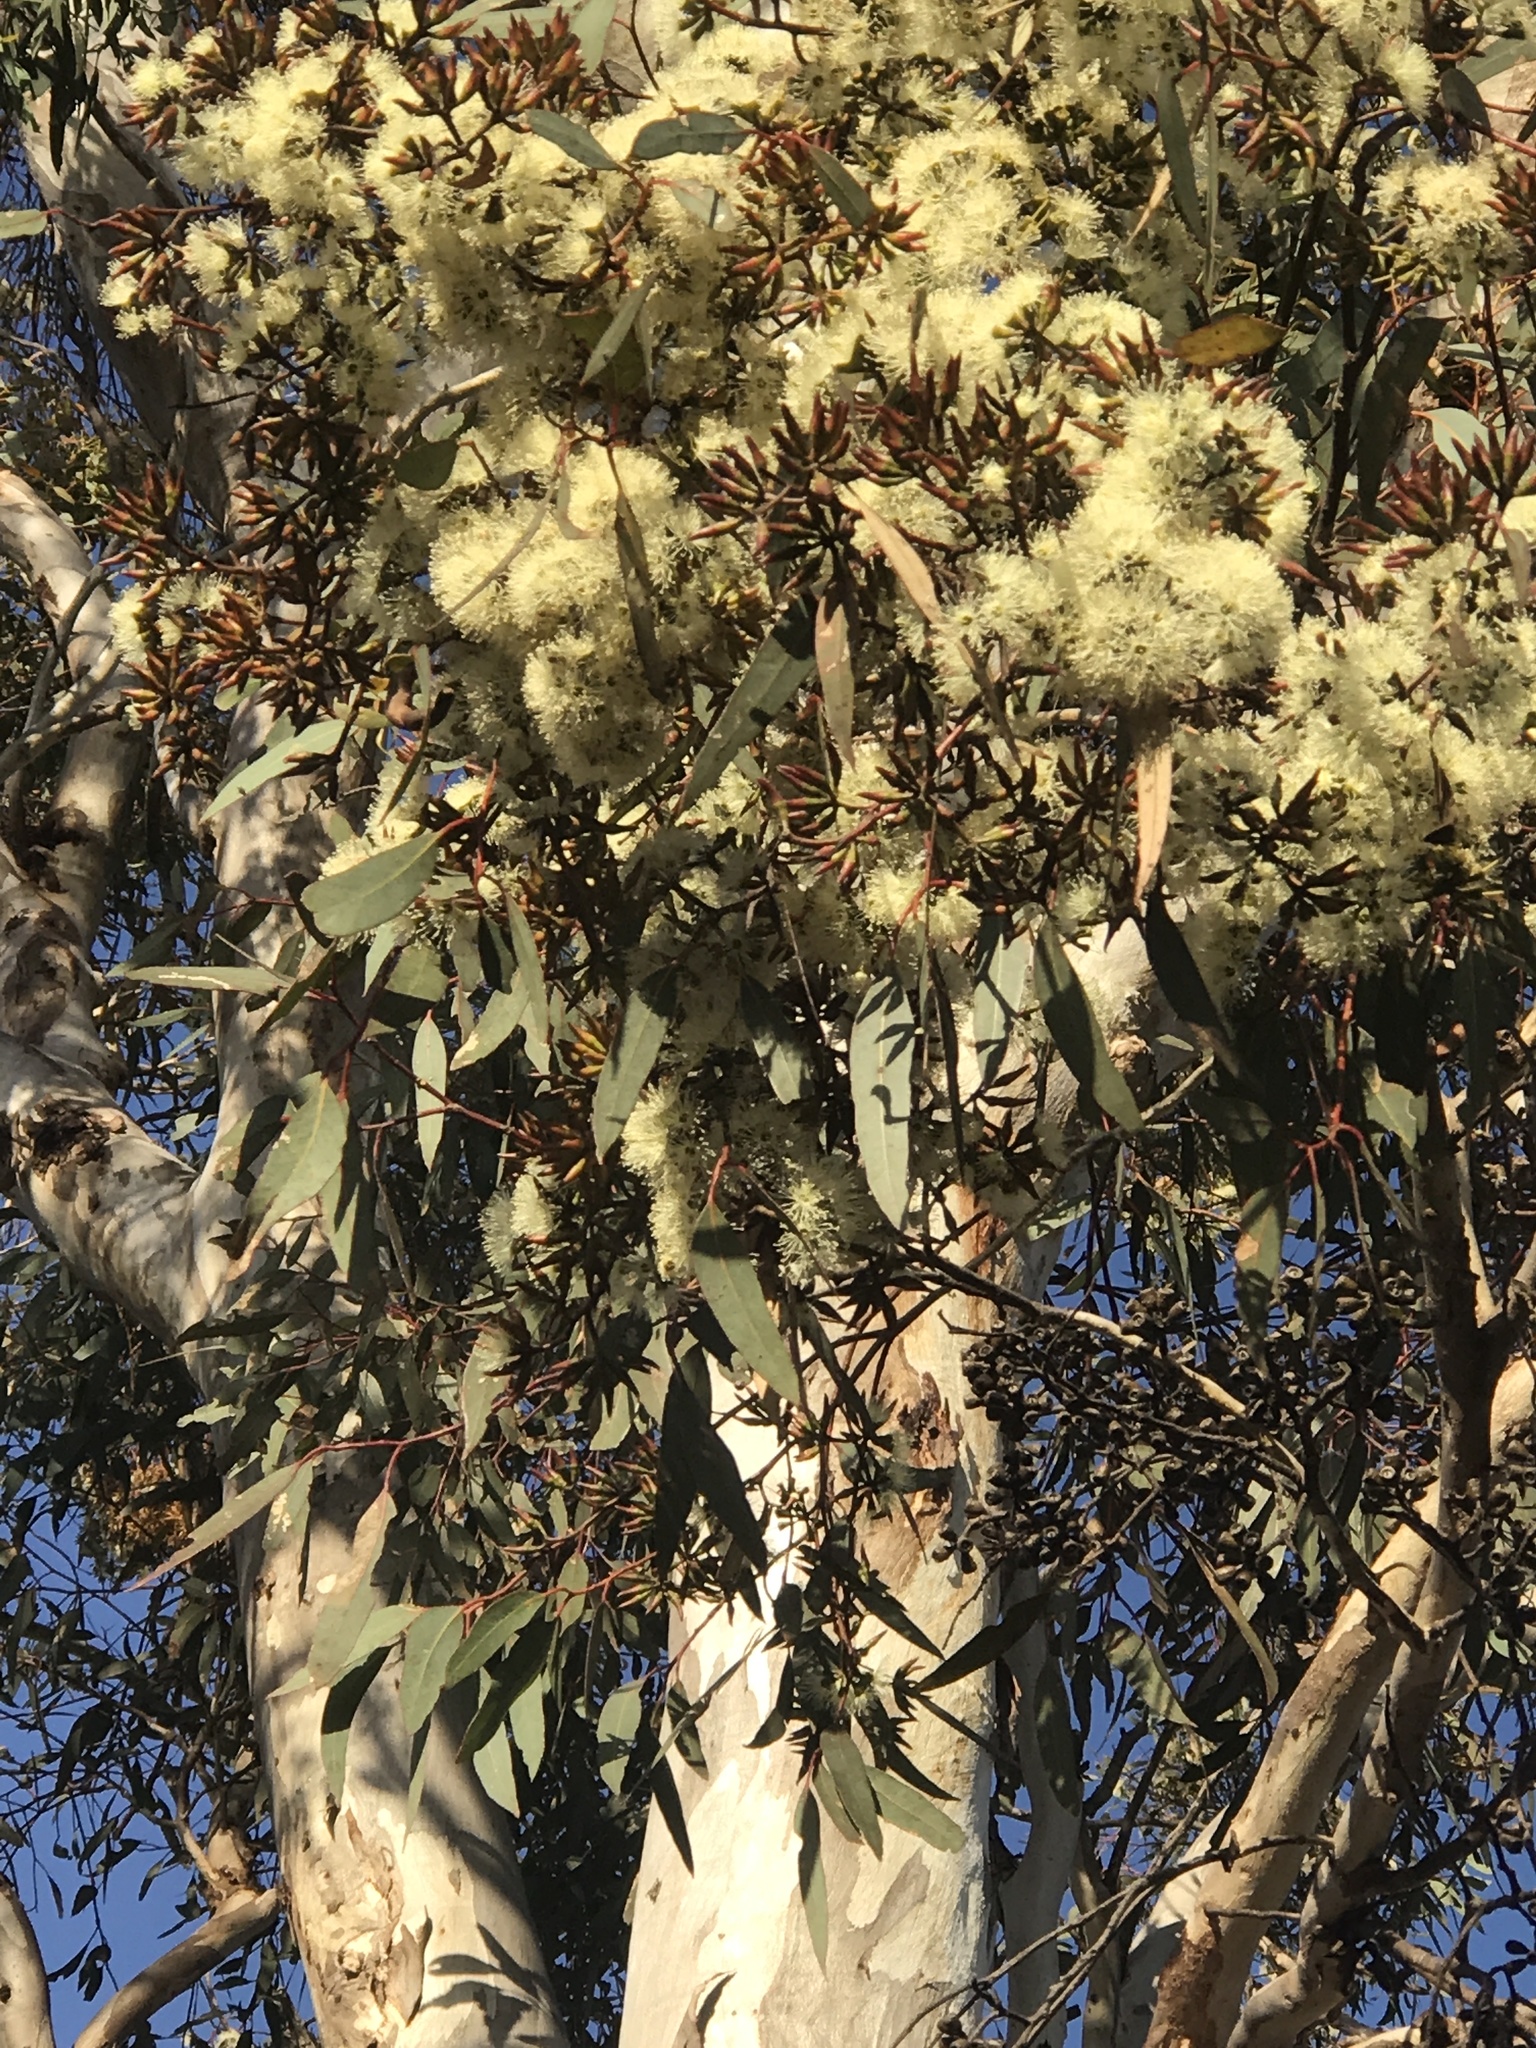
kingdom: Plantae
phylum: Tracheophyta
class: Magnoliopsida
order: Myrtales
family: Myrtaceae
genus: Eucalyptus
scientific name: Eucalyptus wandoo
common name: White gum
